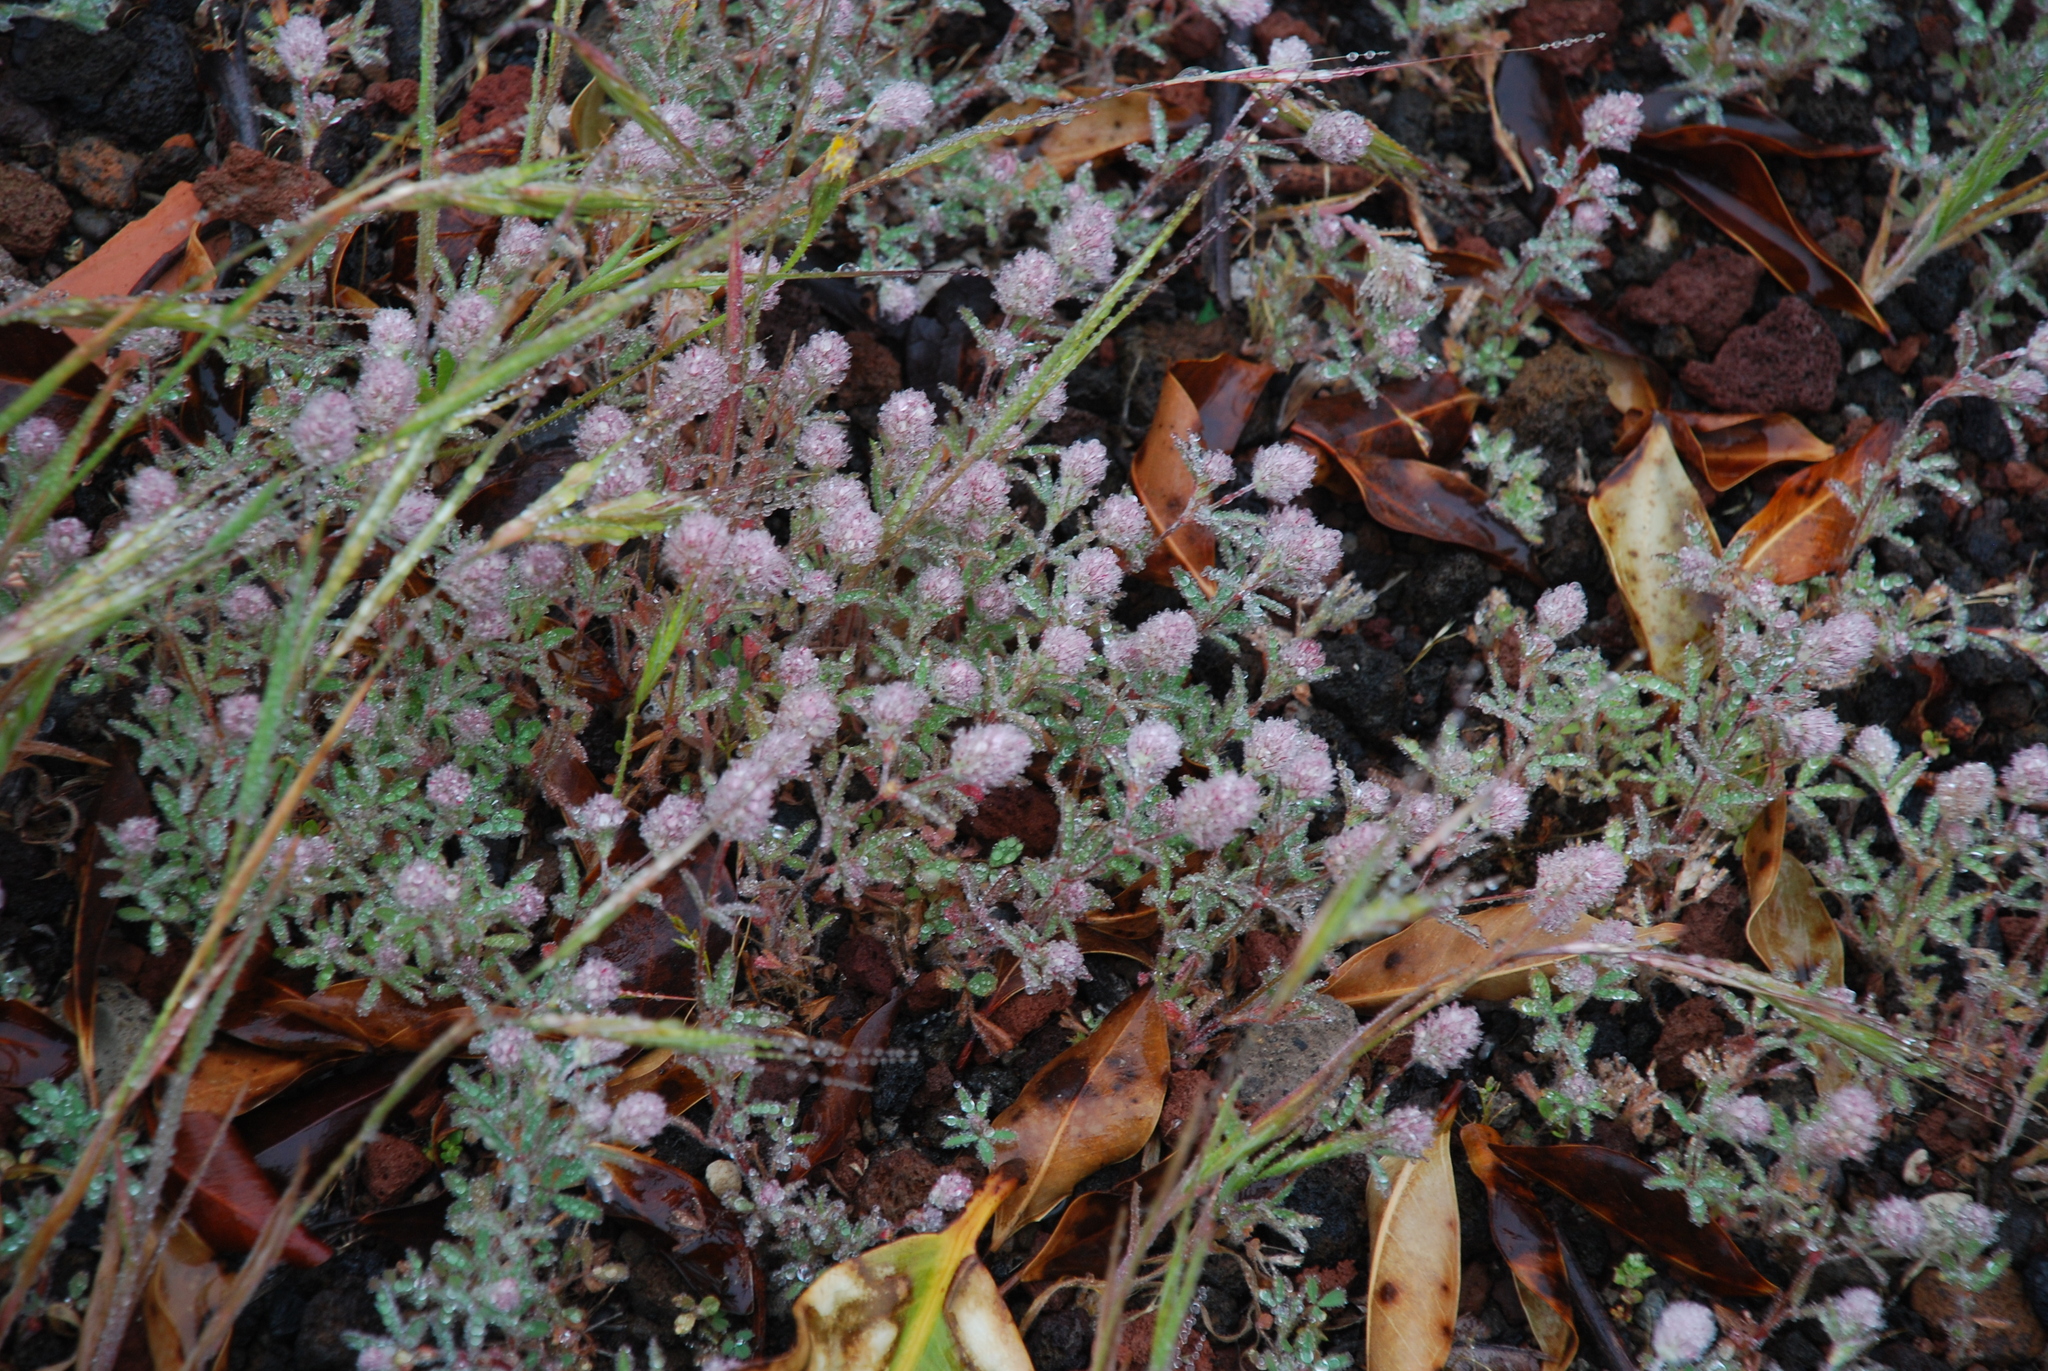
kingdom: Plantae
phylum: Tracheophyta
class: Magnoliopsida
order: Fabales
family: Fabaceae
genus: Trifolium
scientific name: Trifolium arvense
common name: Hare's-foot clover
